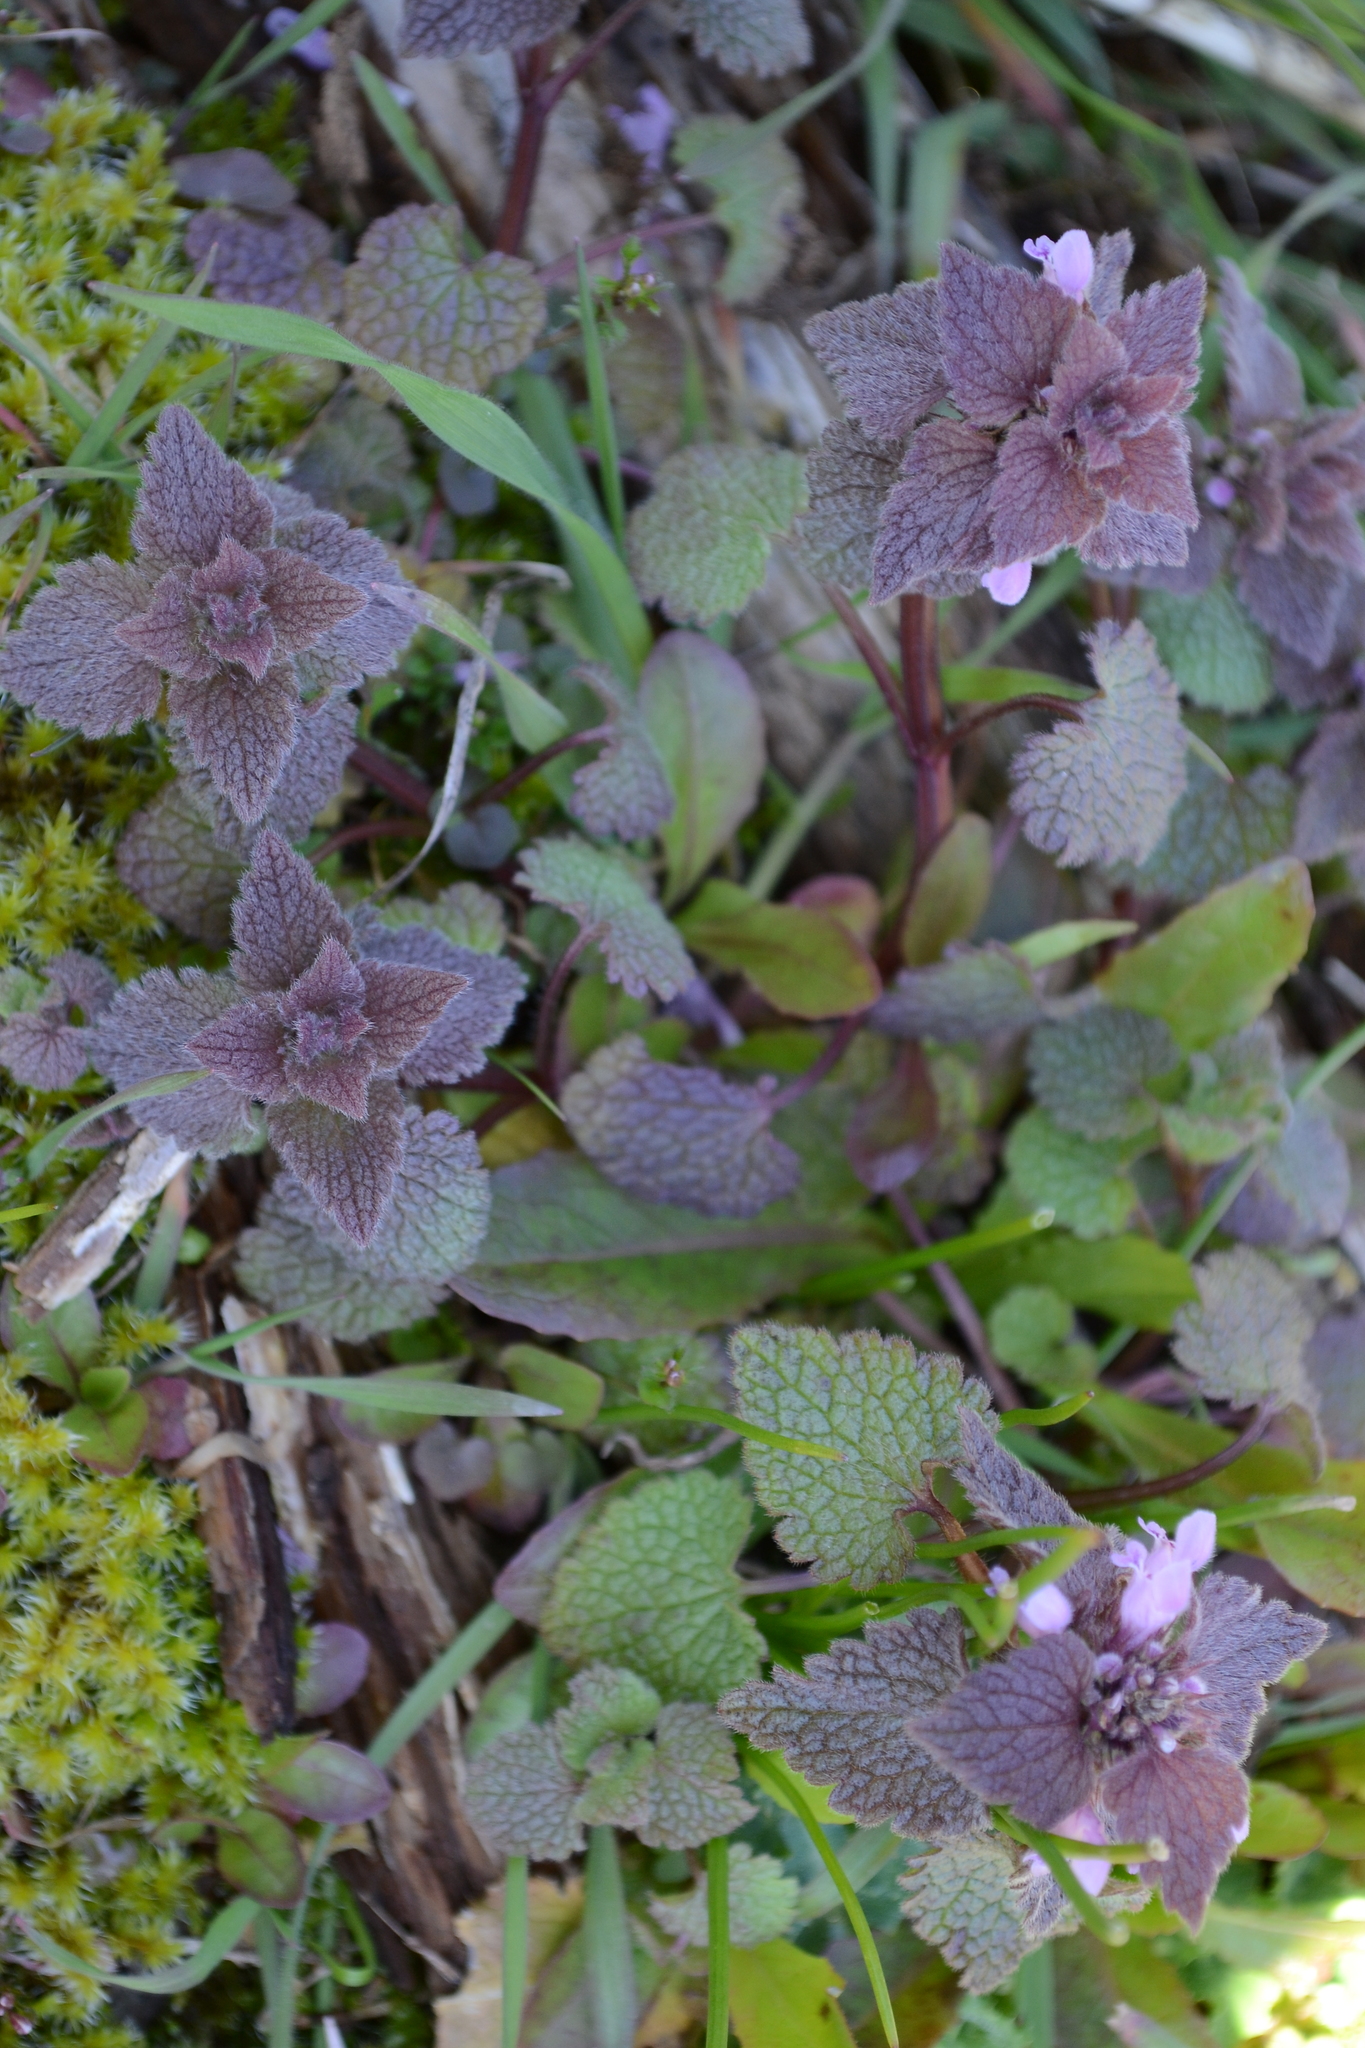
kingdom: Plantae
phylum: Tracheophyta
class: Magnoliopsida
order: Lamiales
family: Lamiaceae
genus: Lamium
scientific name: Lamium purpureum
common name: Red dead-nettle
